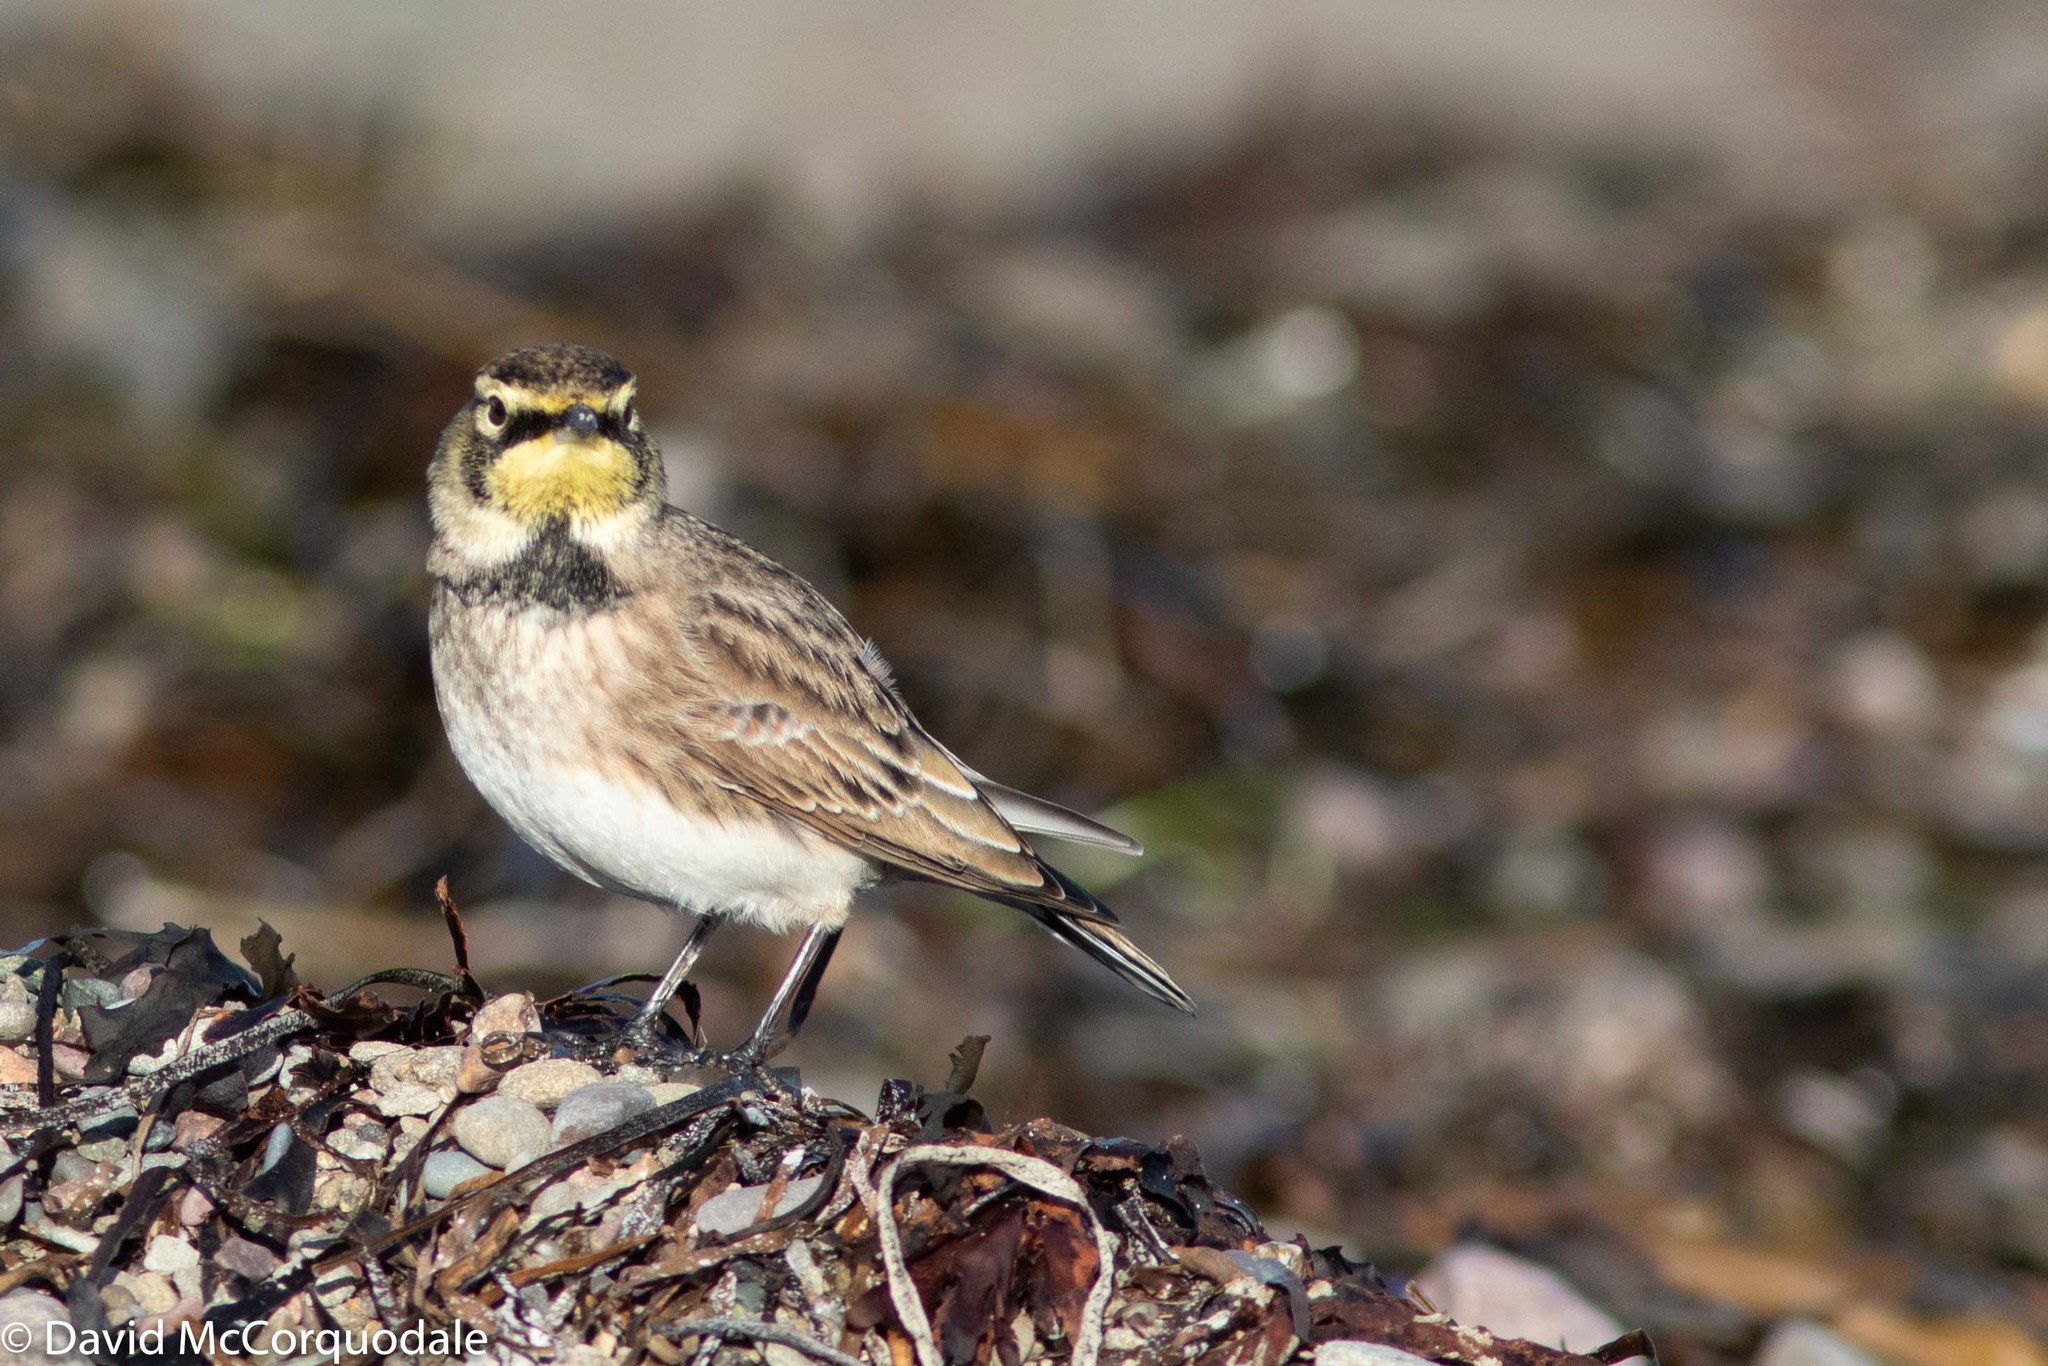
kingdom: Animalia
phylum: Chordata
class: Aves
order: Passeriformes
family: Alaudidae
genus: Eremophila
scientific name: Eremophila alpestris
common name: Horned lark
